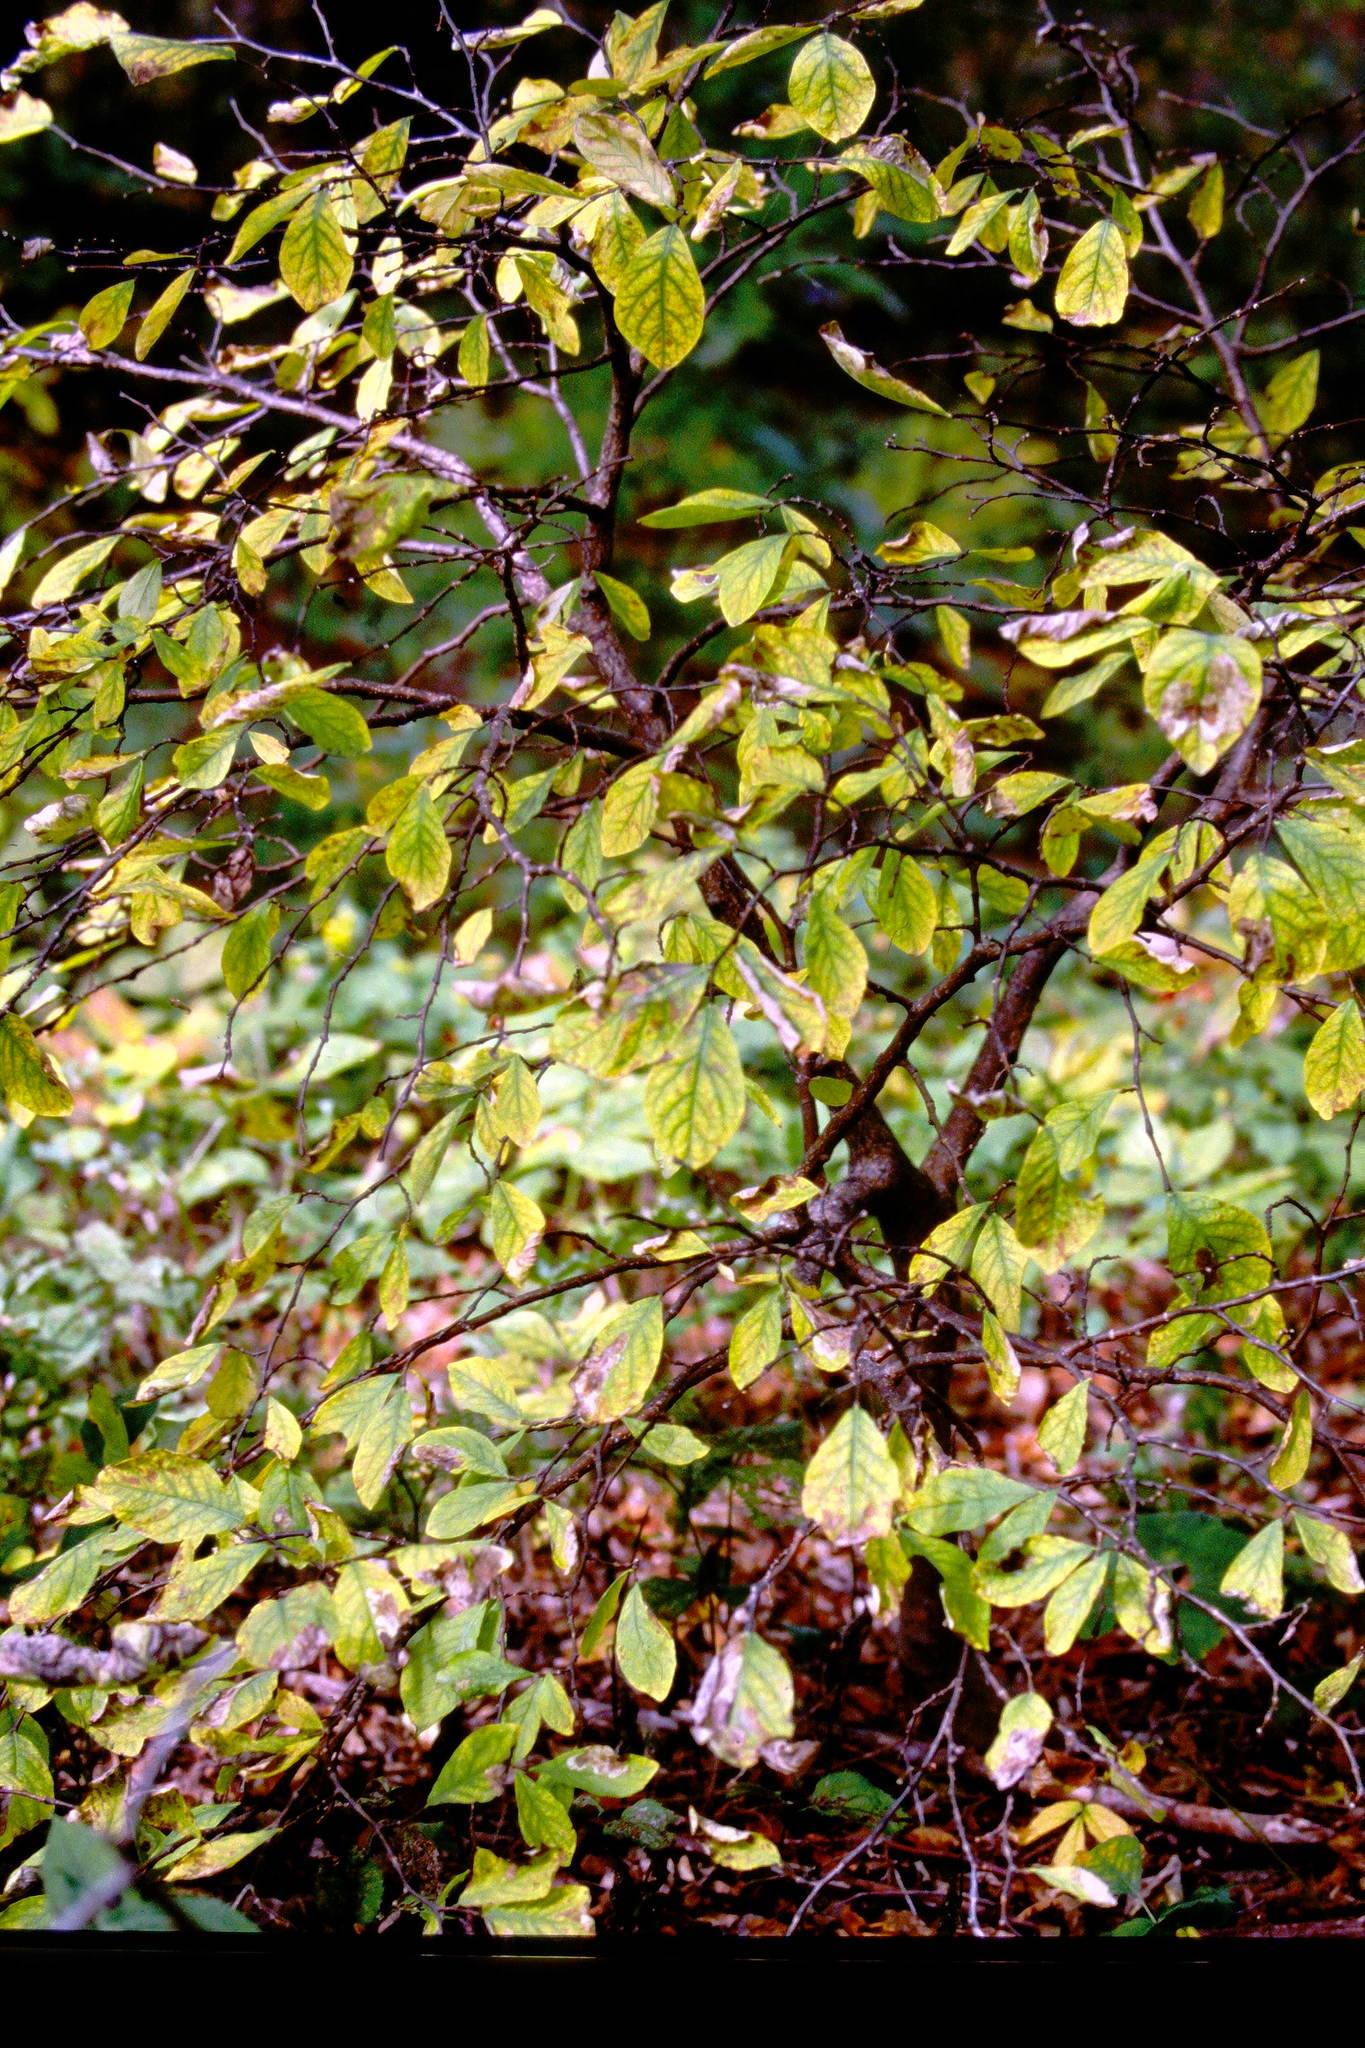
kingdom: Plantae
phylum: Tracheophyta
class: Magnoliopsida
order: Malvales
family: Thymelaeaceae
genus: Dirca
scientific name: Dirca palustris
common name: Leatherwood
